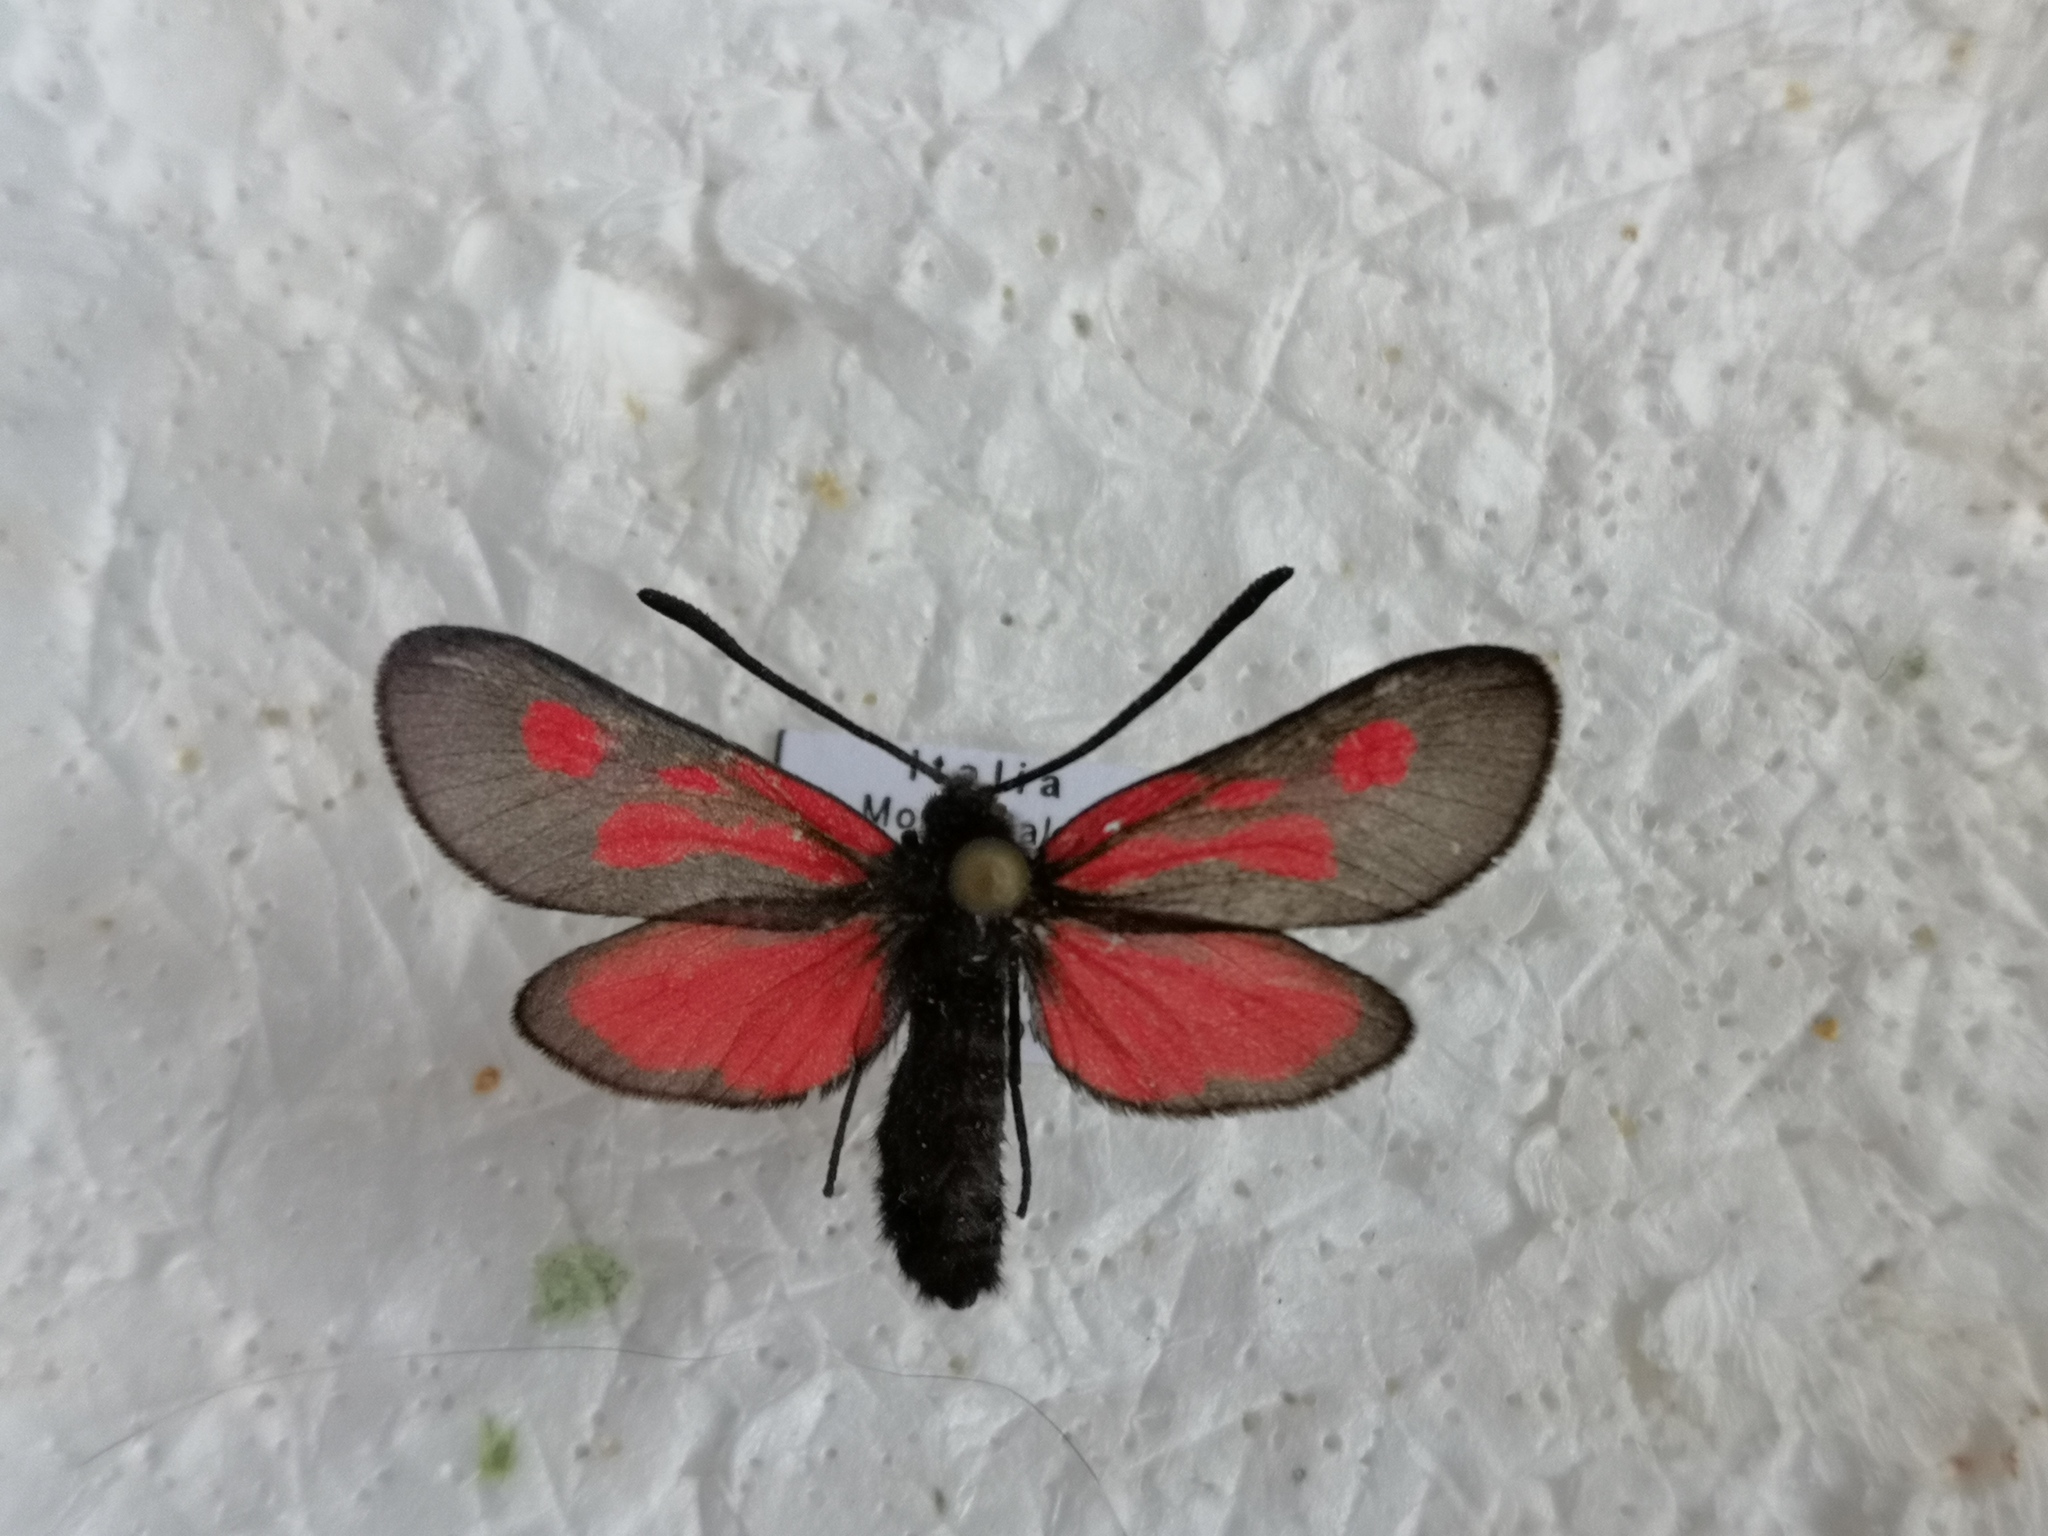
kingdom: Animalia
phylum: Arthropoda
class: Insecta
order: Lepidoptera
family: Zygaenidae
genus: Zygaena
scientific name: Zygaena romeo
